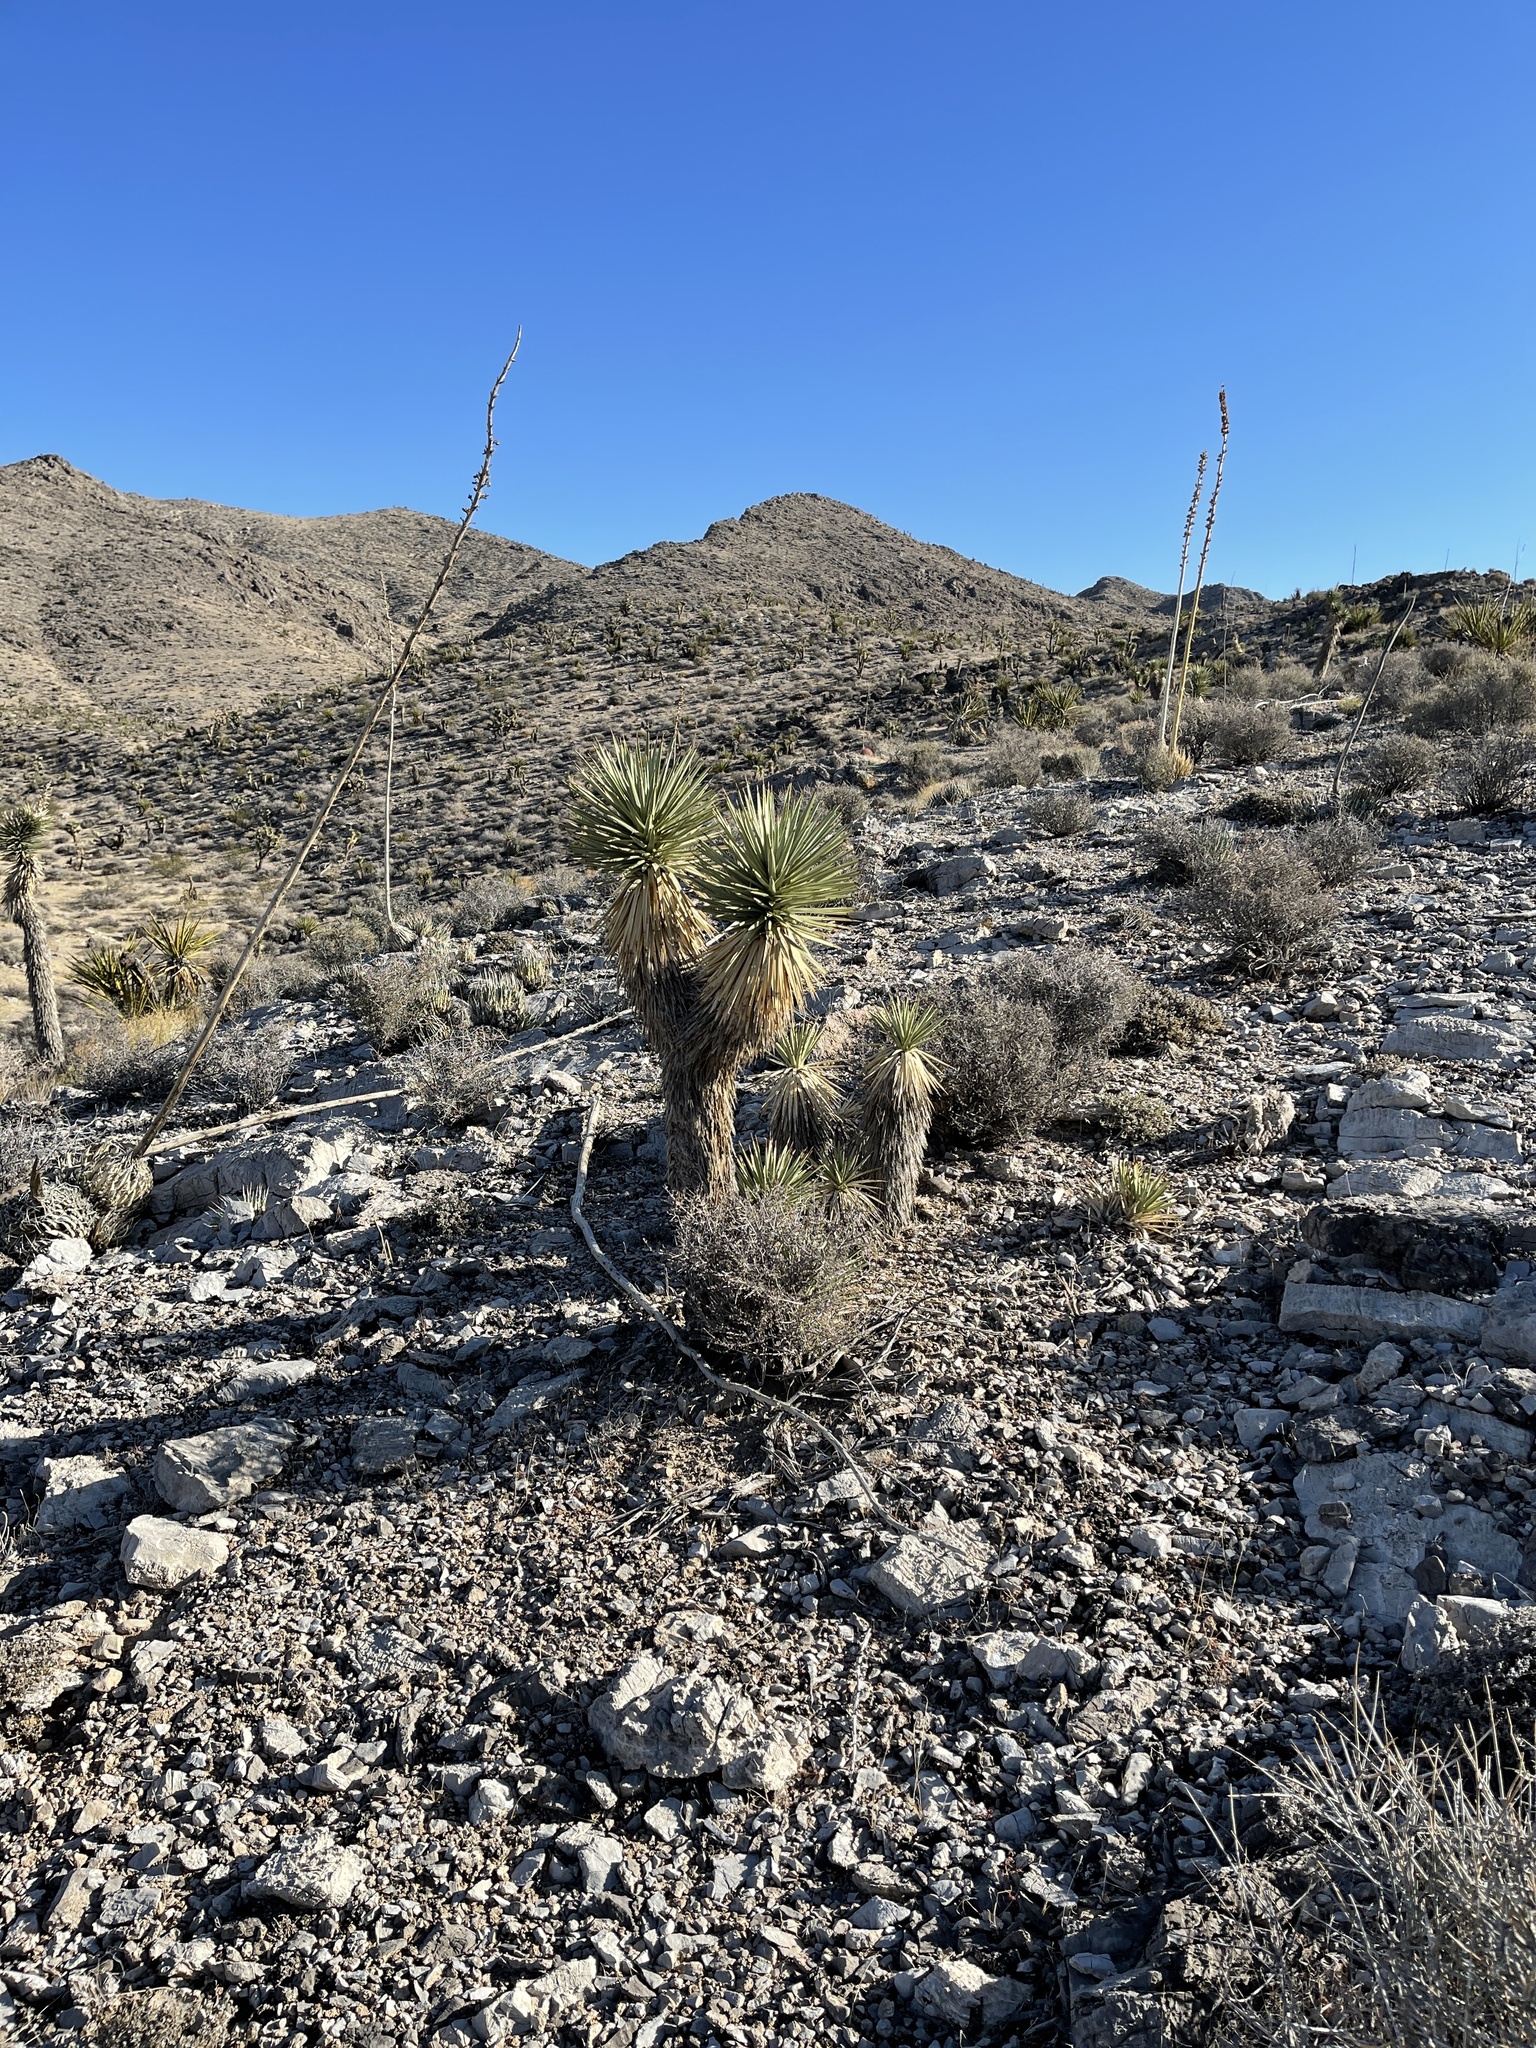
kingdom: Plantae
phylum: Tracheophyta
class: Liliopsida
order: Asparagales
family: Asparagaceae
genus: Yucca
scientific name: Yucca brevifolia
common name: Joshua tree
